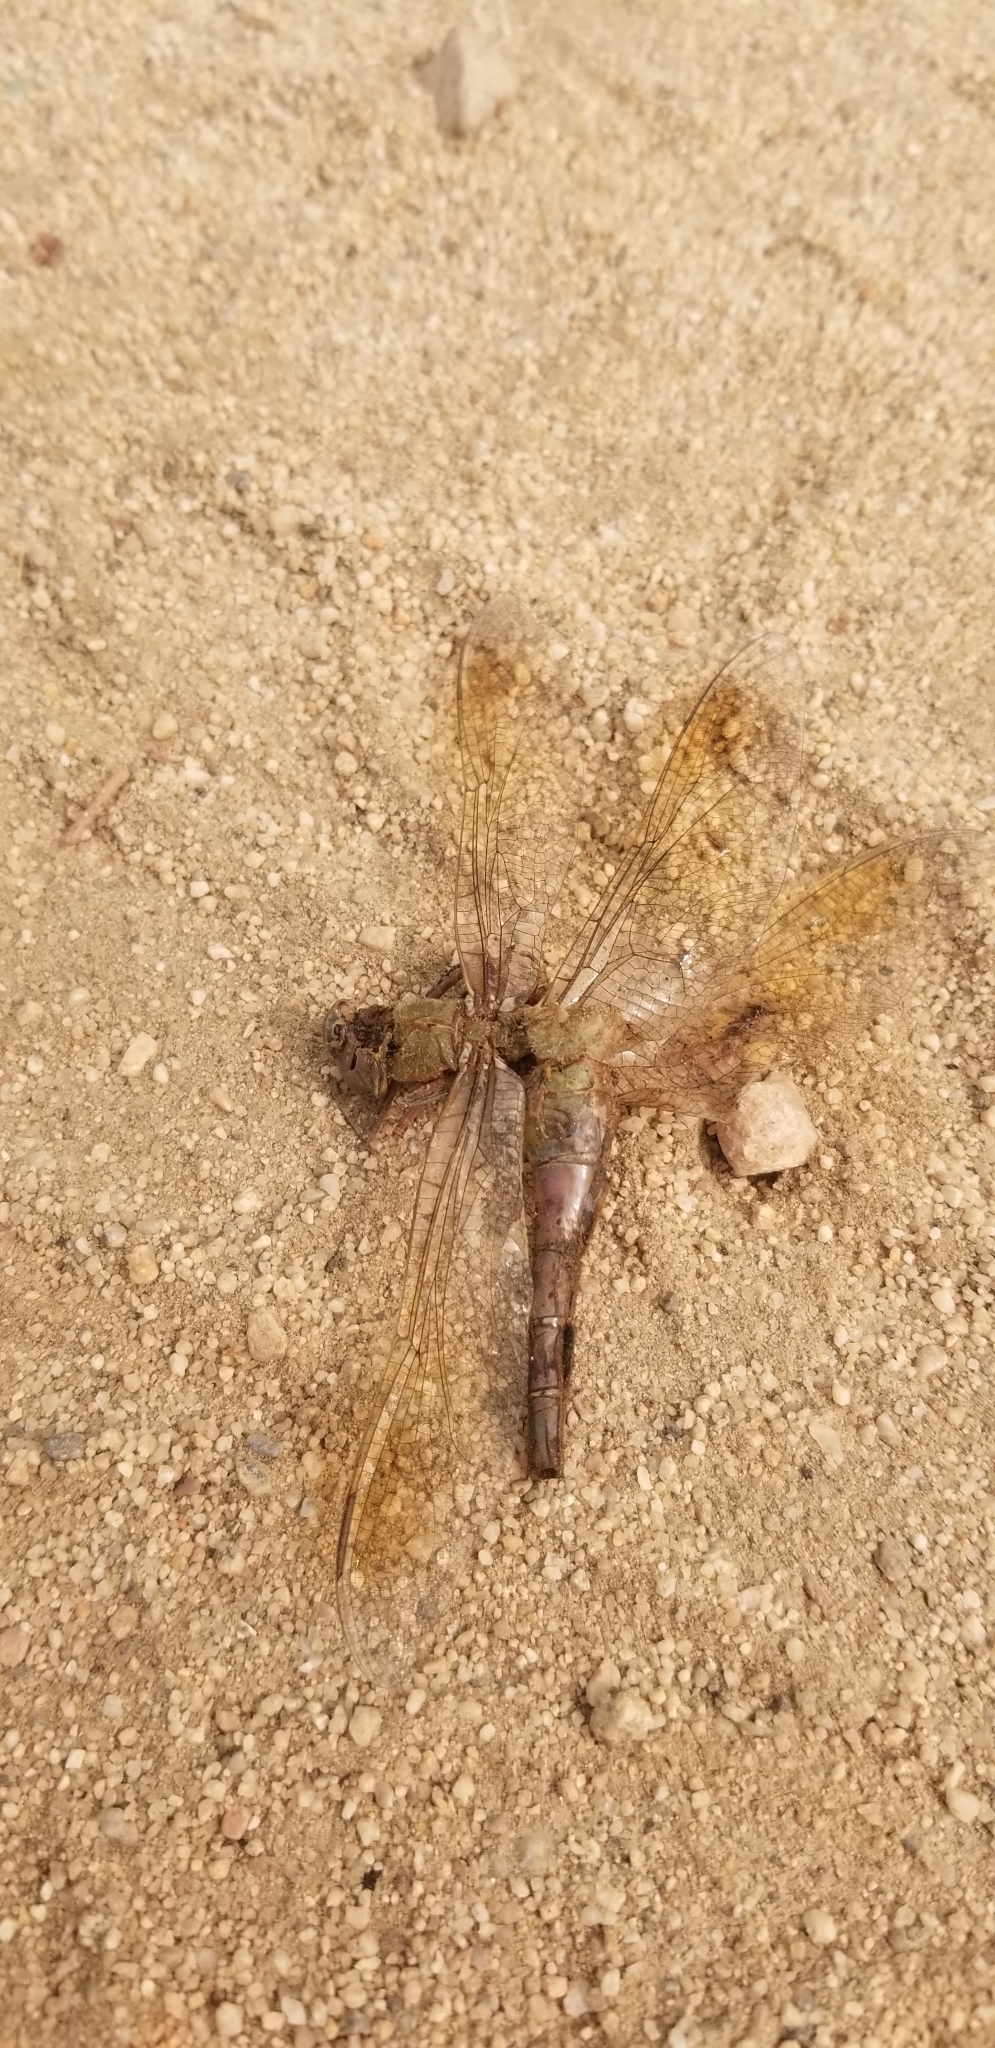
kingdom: Animalia
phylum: Arthropoda
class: Insecta
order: Odonata
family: Aeshnidae
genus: Anax
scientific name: Anax junius
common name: Common green darner
